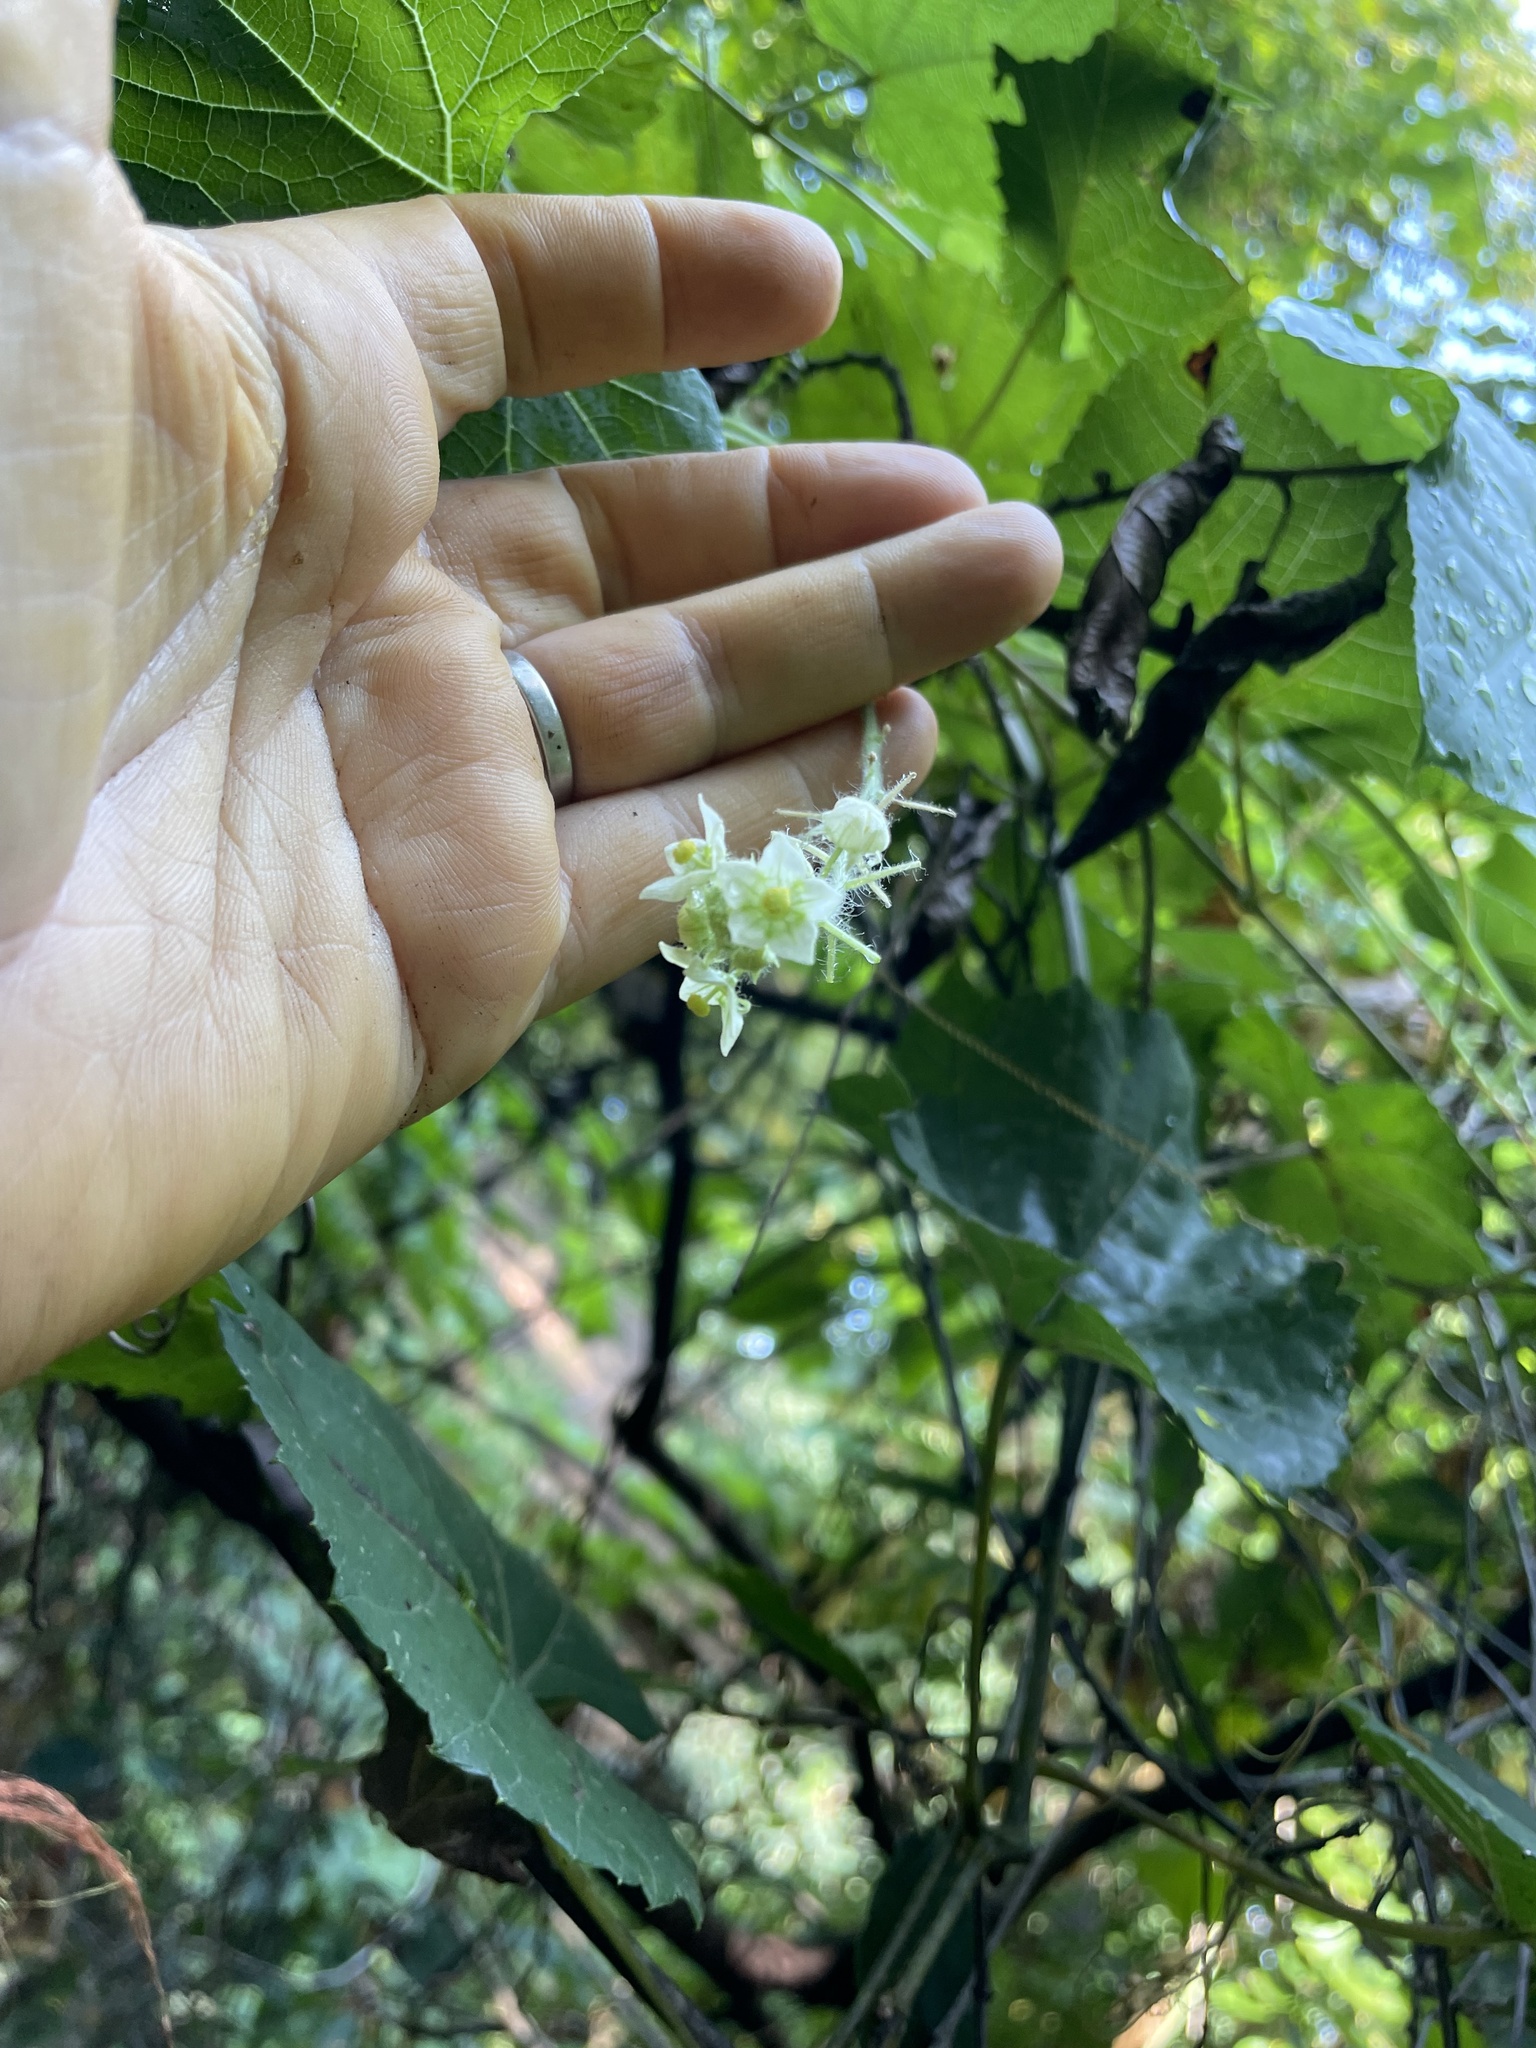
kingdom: Plantae
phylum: Tracheophyta
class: Magnoliopsida
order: Cucurbitales
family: Cucurbitaceae
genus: Sicyos
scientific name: Sicyos angulatus
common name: Angled burr cucumber
